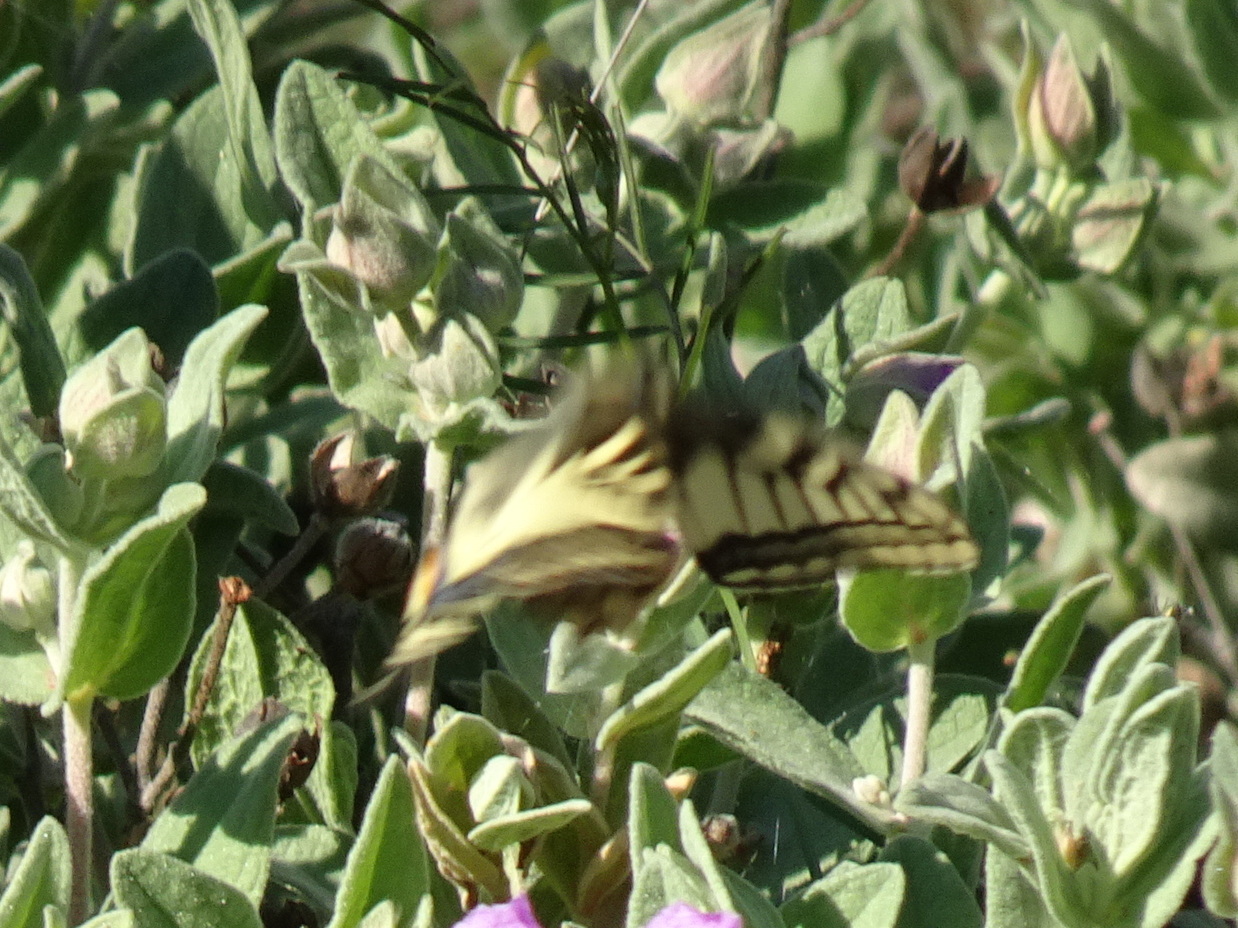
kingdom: Animalia
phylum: Arthropoda
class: Insecta
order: Lepidoptera
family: Papilionidae
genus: Papilio
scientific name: Papilio machaon
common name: Swallowtail
